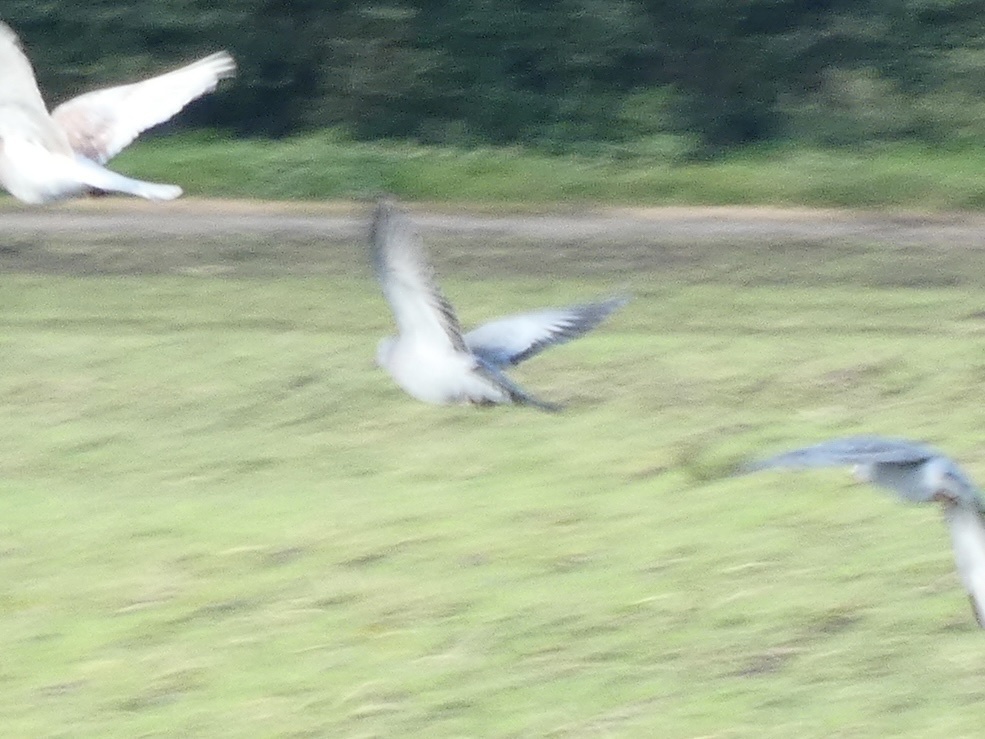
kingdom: Animalia
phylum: Chordata
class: Aves
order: Columbiformes
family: Columbidae
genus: Columba
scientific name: Columba oenas
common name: Stock dove
